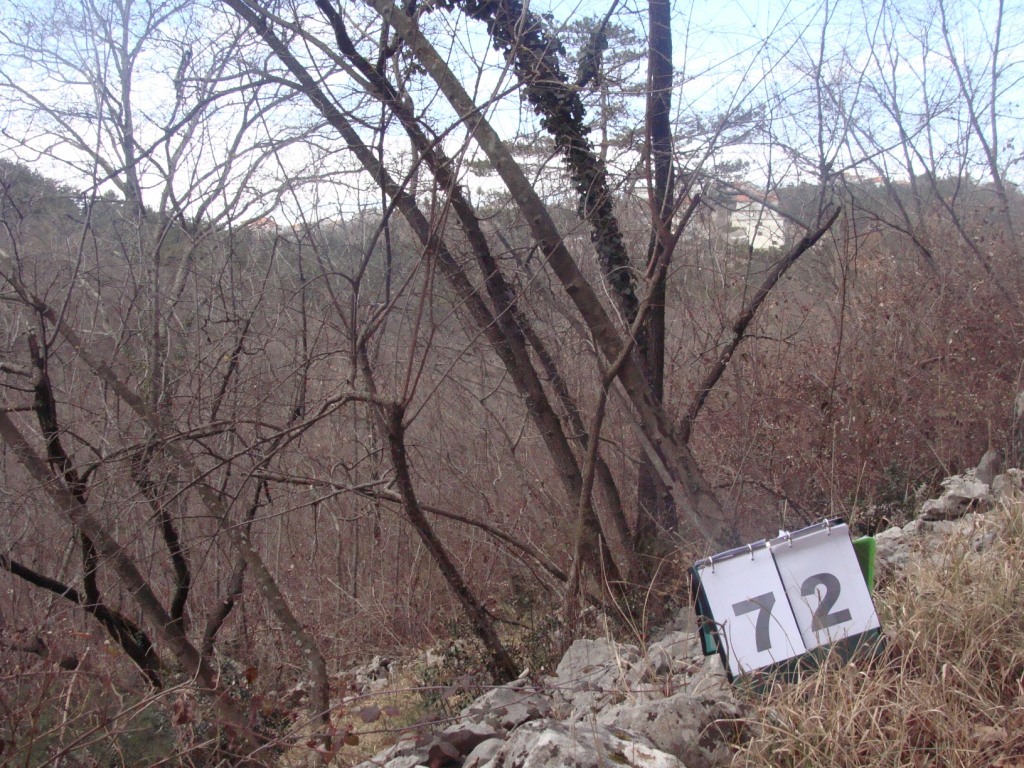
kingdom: Plantae
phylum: Tracheophyta
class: Magnoliopsida
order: Cornales
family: Cornaceae
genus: Cornus
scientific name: Cornus mas
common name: Cornelian-cherry
